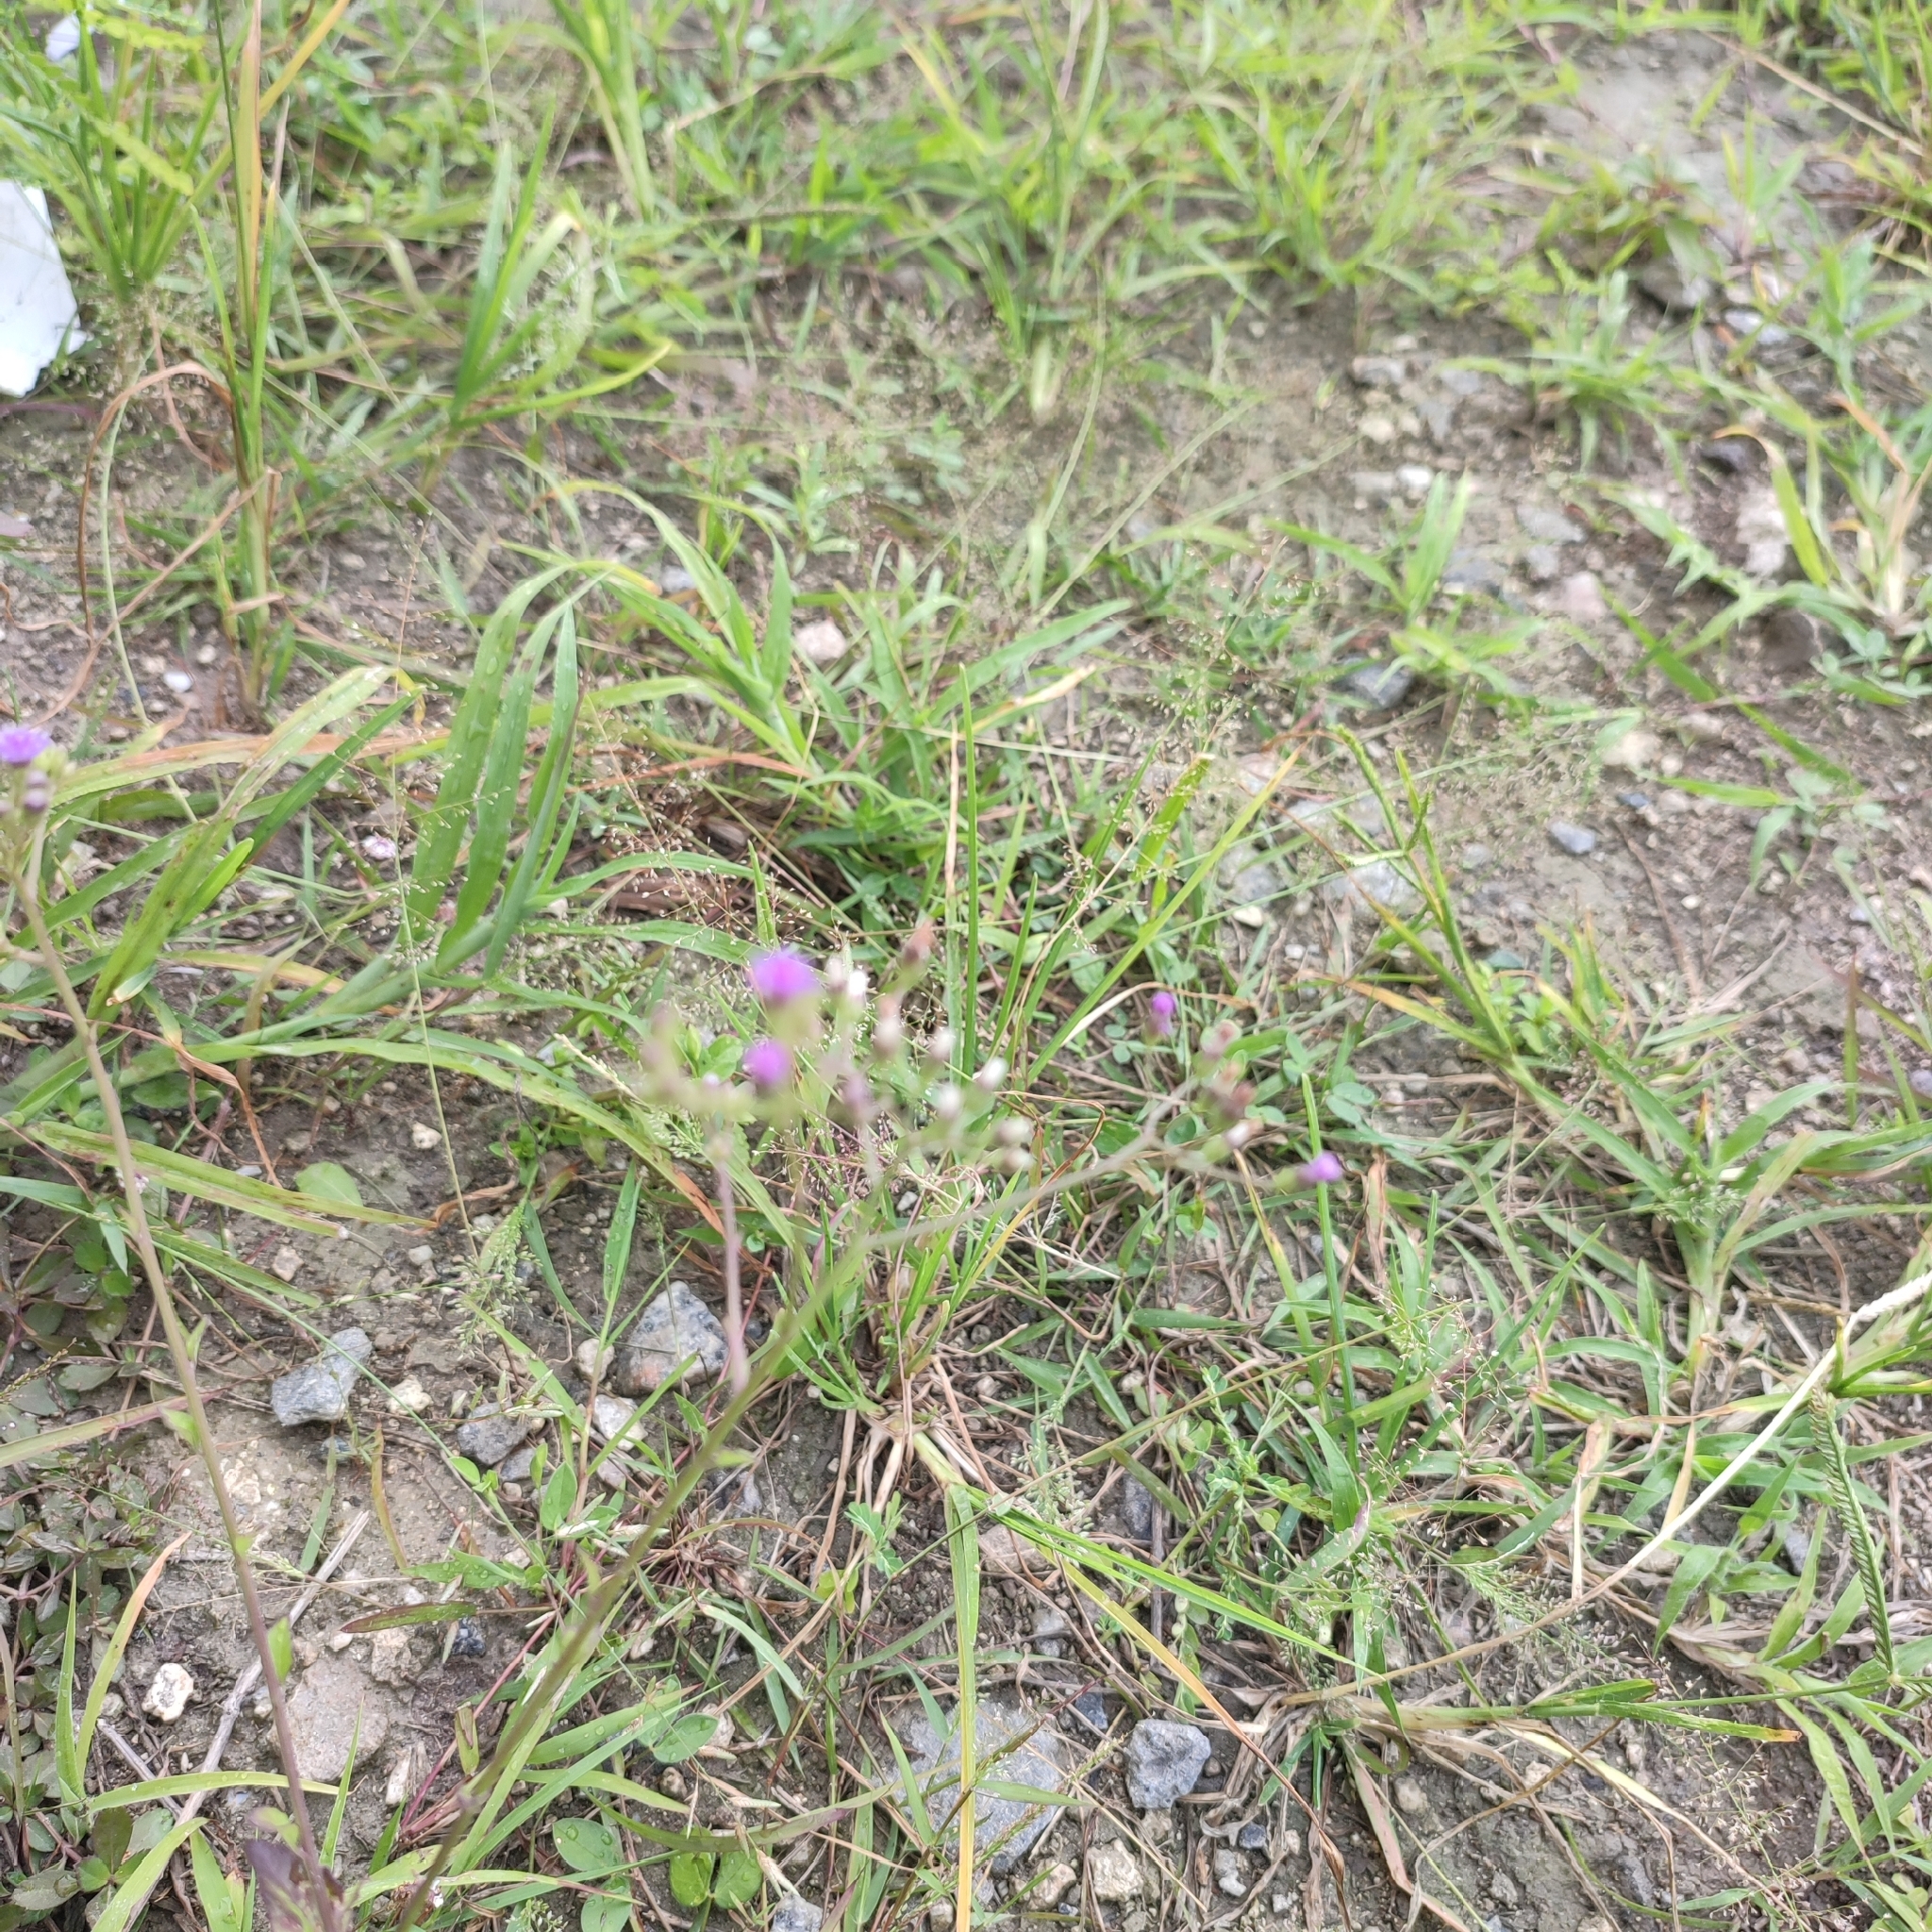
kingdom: Plantae
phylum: Tracheophyta
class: Magnoliopsida
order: Asterales
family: Asteraceae
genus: Cyanthillium
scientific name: Cyanthillium cinereum
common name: Little ironweed
